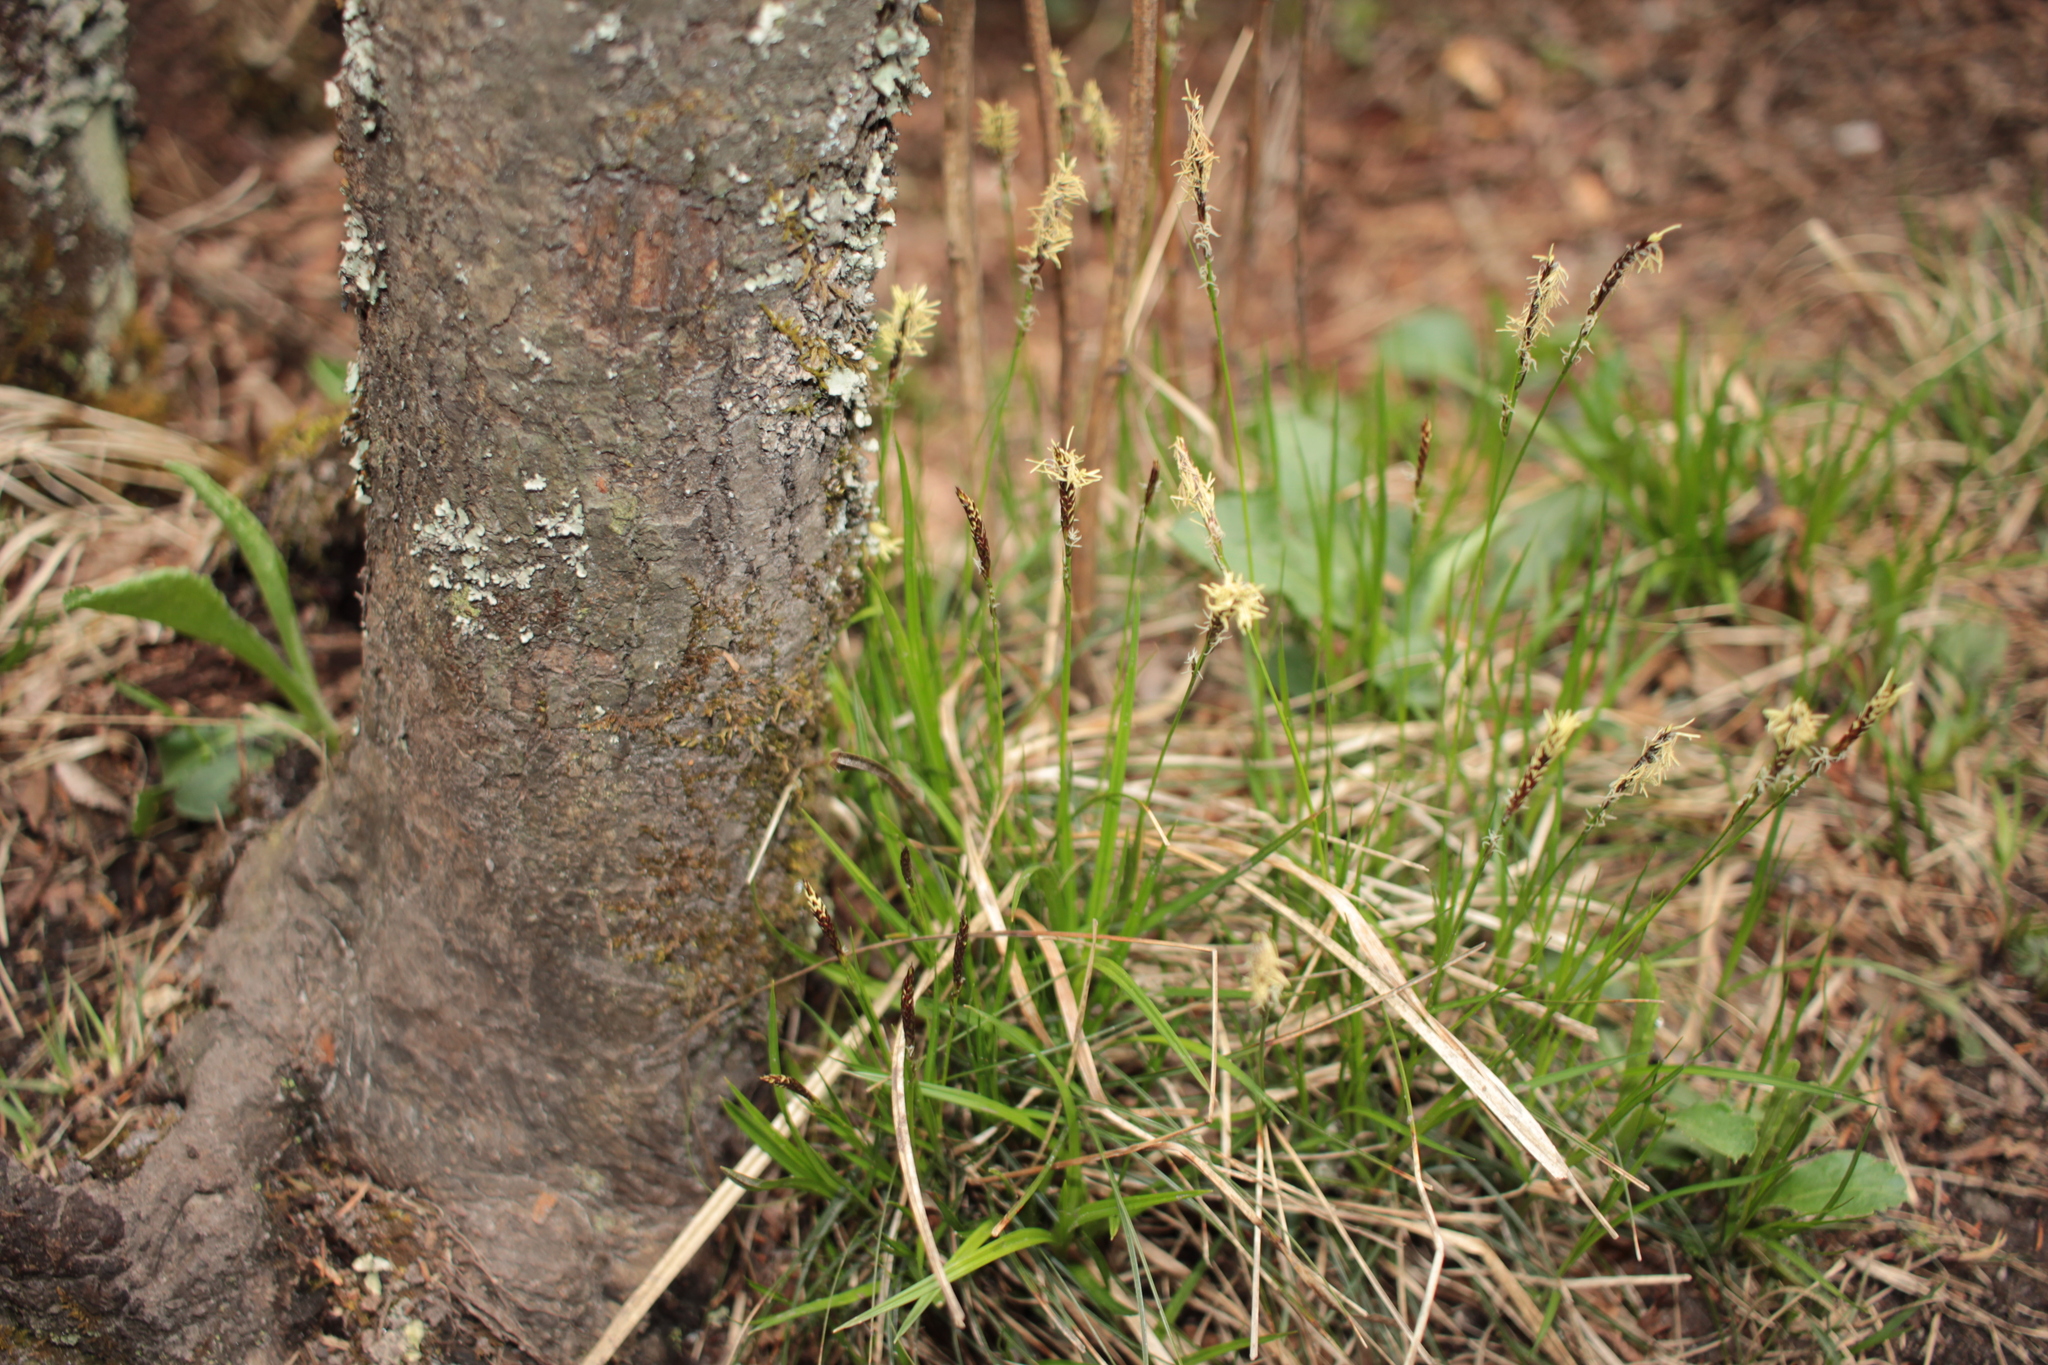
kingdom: Plantae
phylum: Tracheophyta
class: Liliopsida
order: Poales
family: Cyperaceae
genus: Carex
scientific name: Carex
